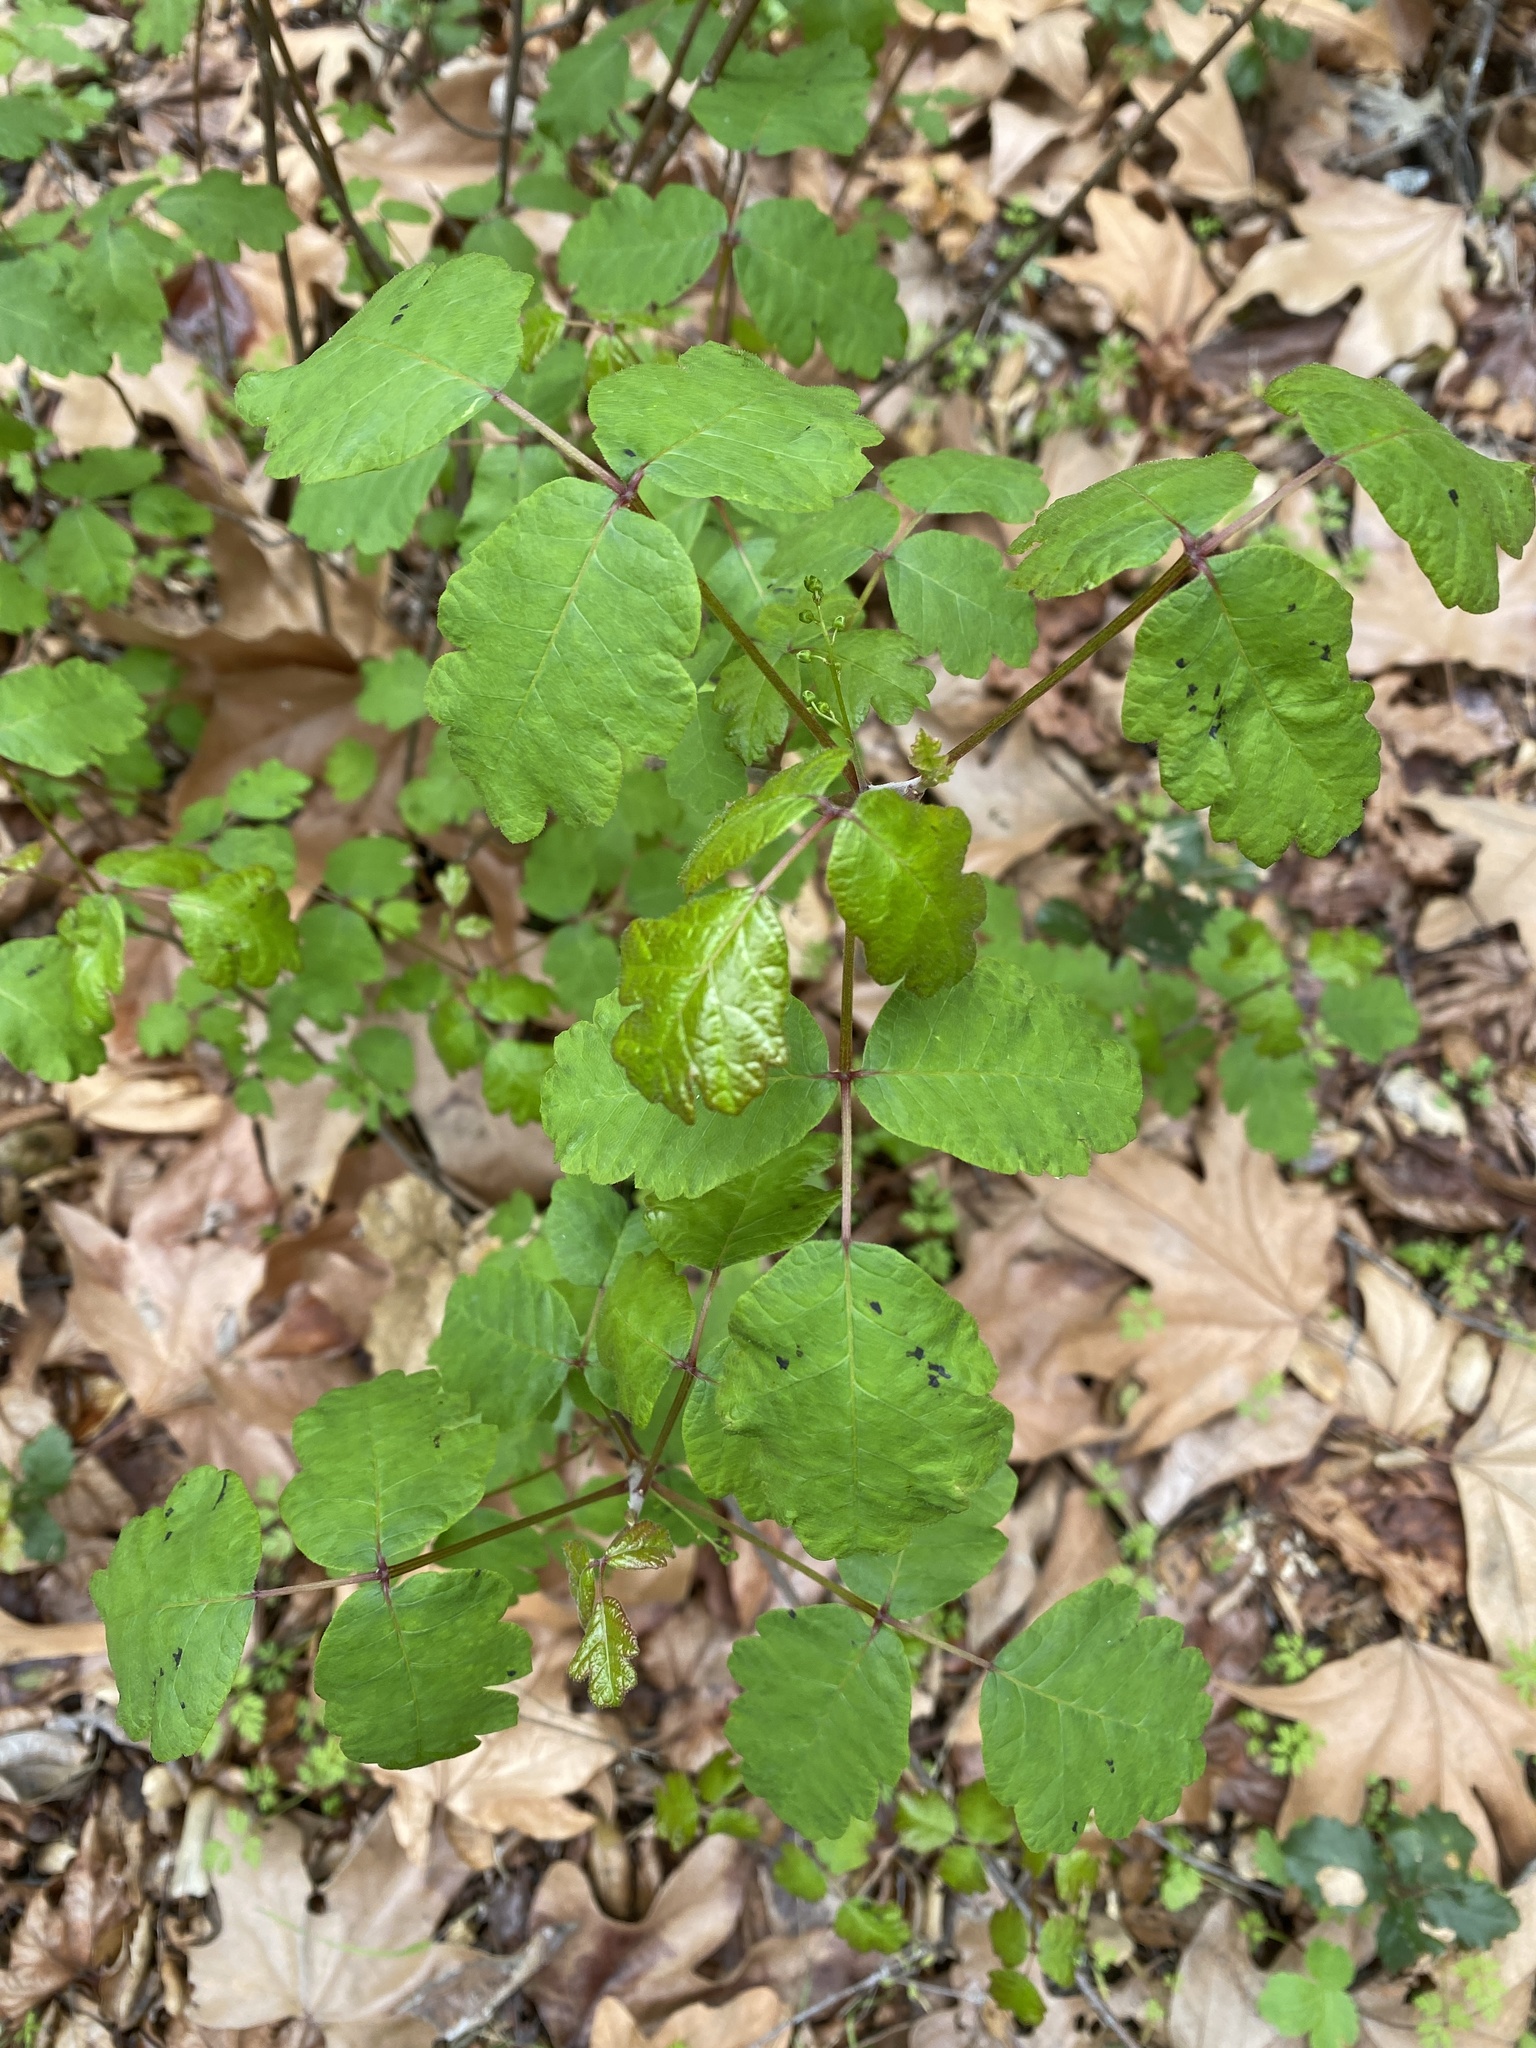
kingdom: Plantae
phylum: Tracheophyta
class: Magnoliopsida
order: Sapindales
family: Anacardiaceae
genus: Toxicodendron
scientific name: Toxicodendron diversilobum
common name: Pacific poison-oak
